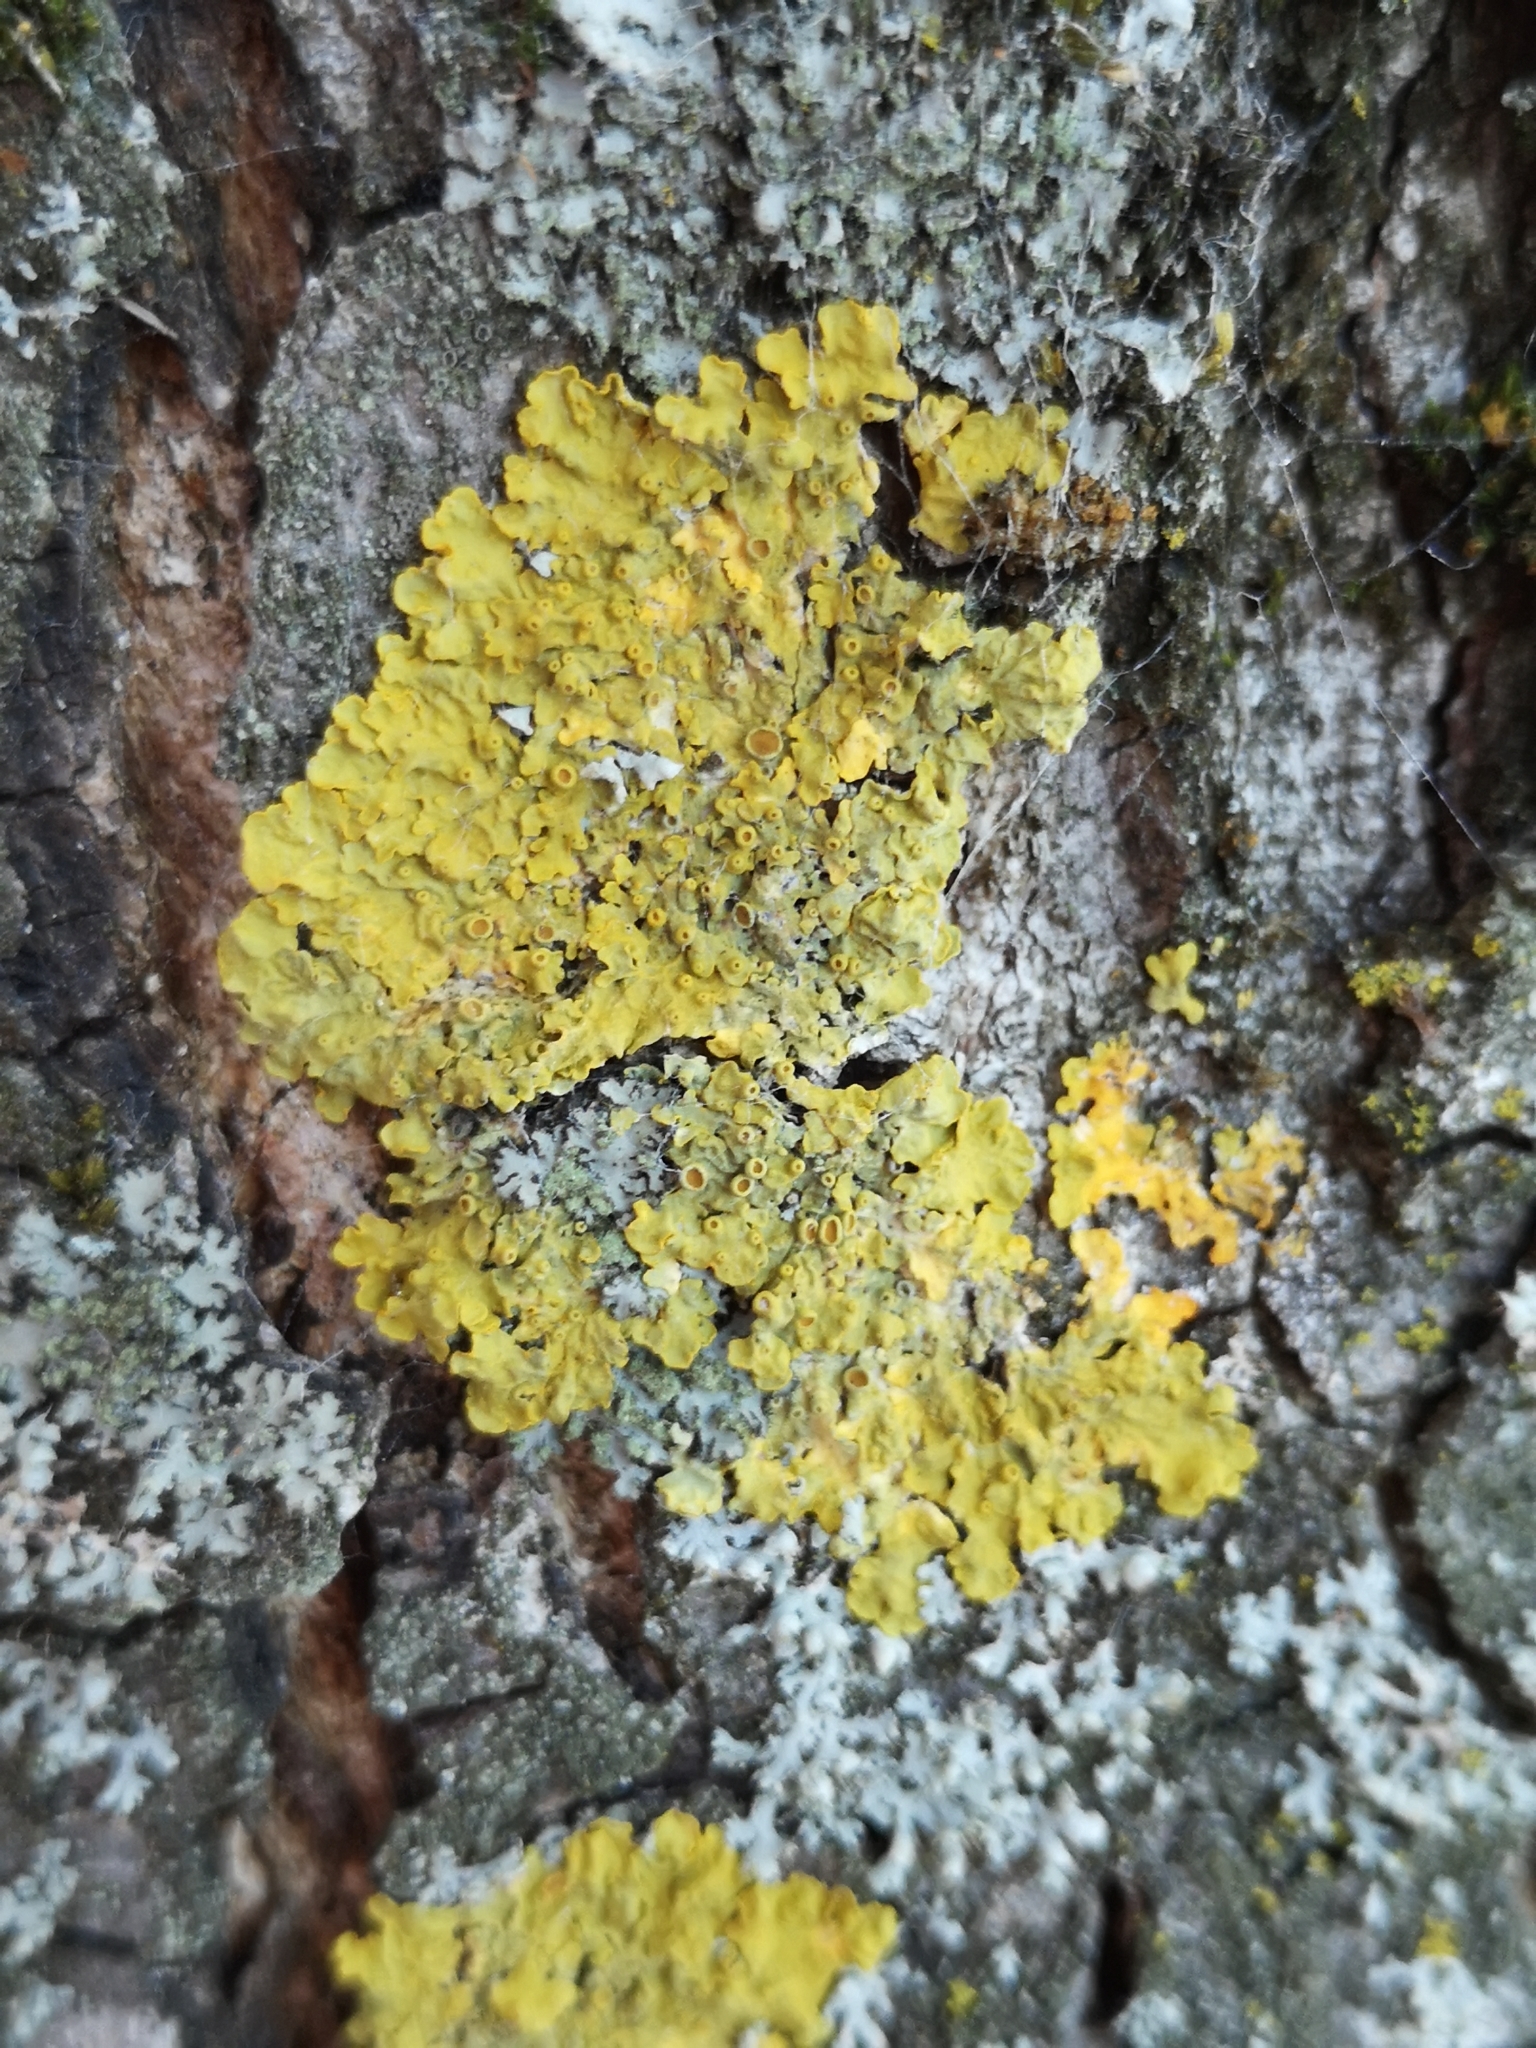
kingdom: Fungi
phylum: Ascomycota
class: Lecanoromycetes
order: Teloschistales
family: Teloschistaceae
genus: Xanthoria
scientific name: Xanthoria parietina
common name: Common orange lichen
